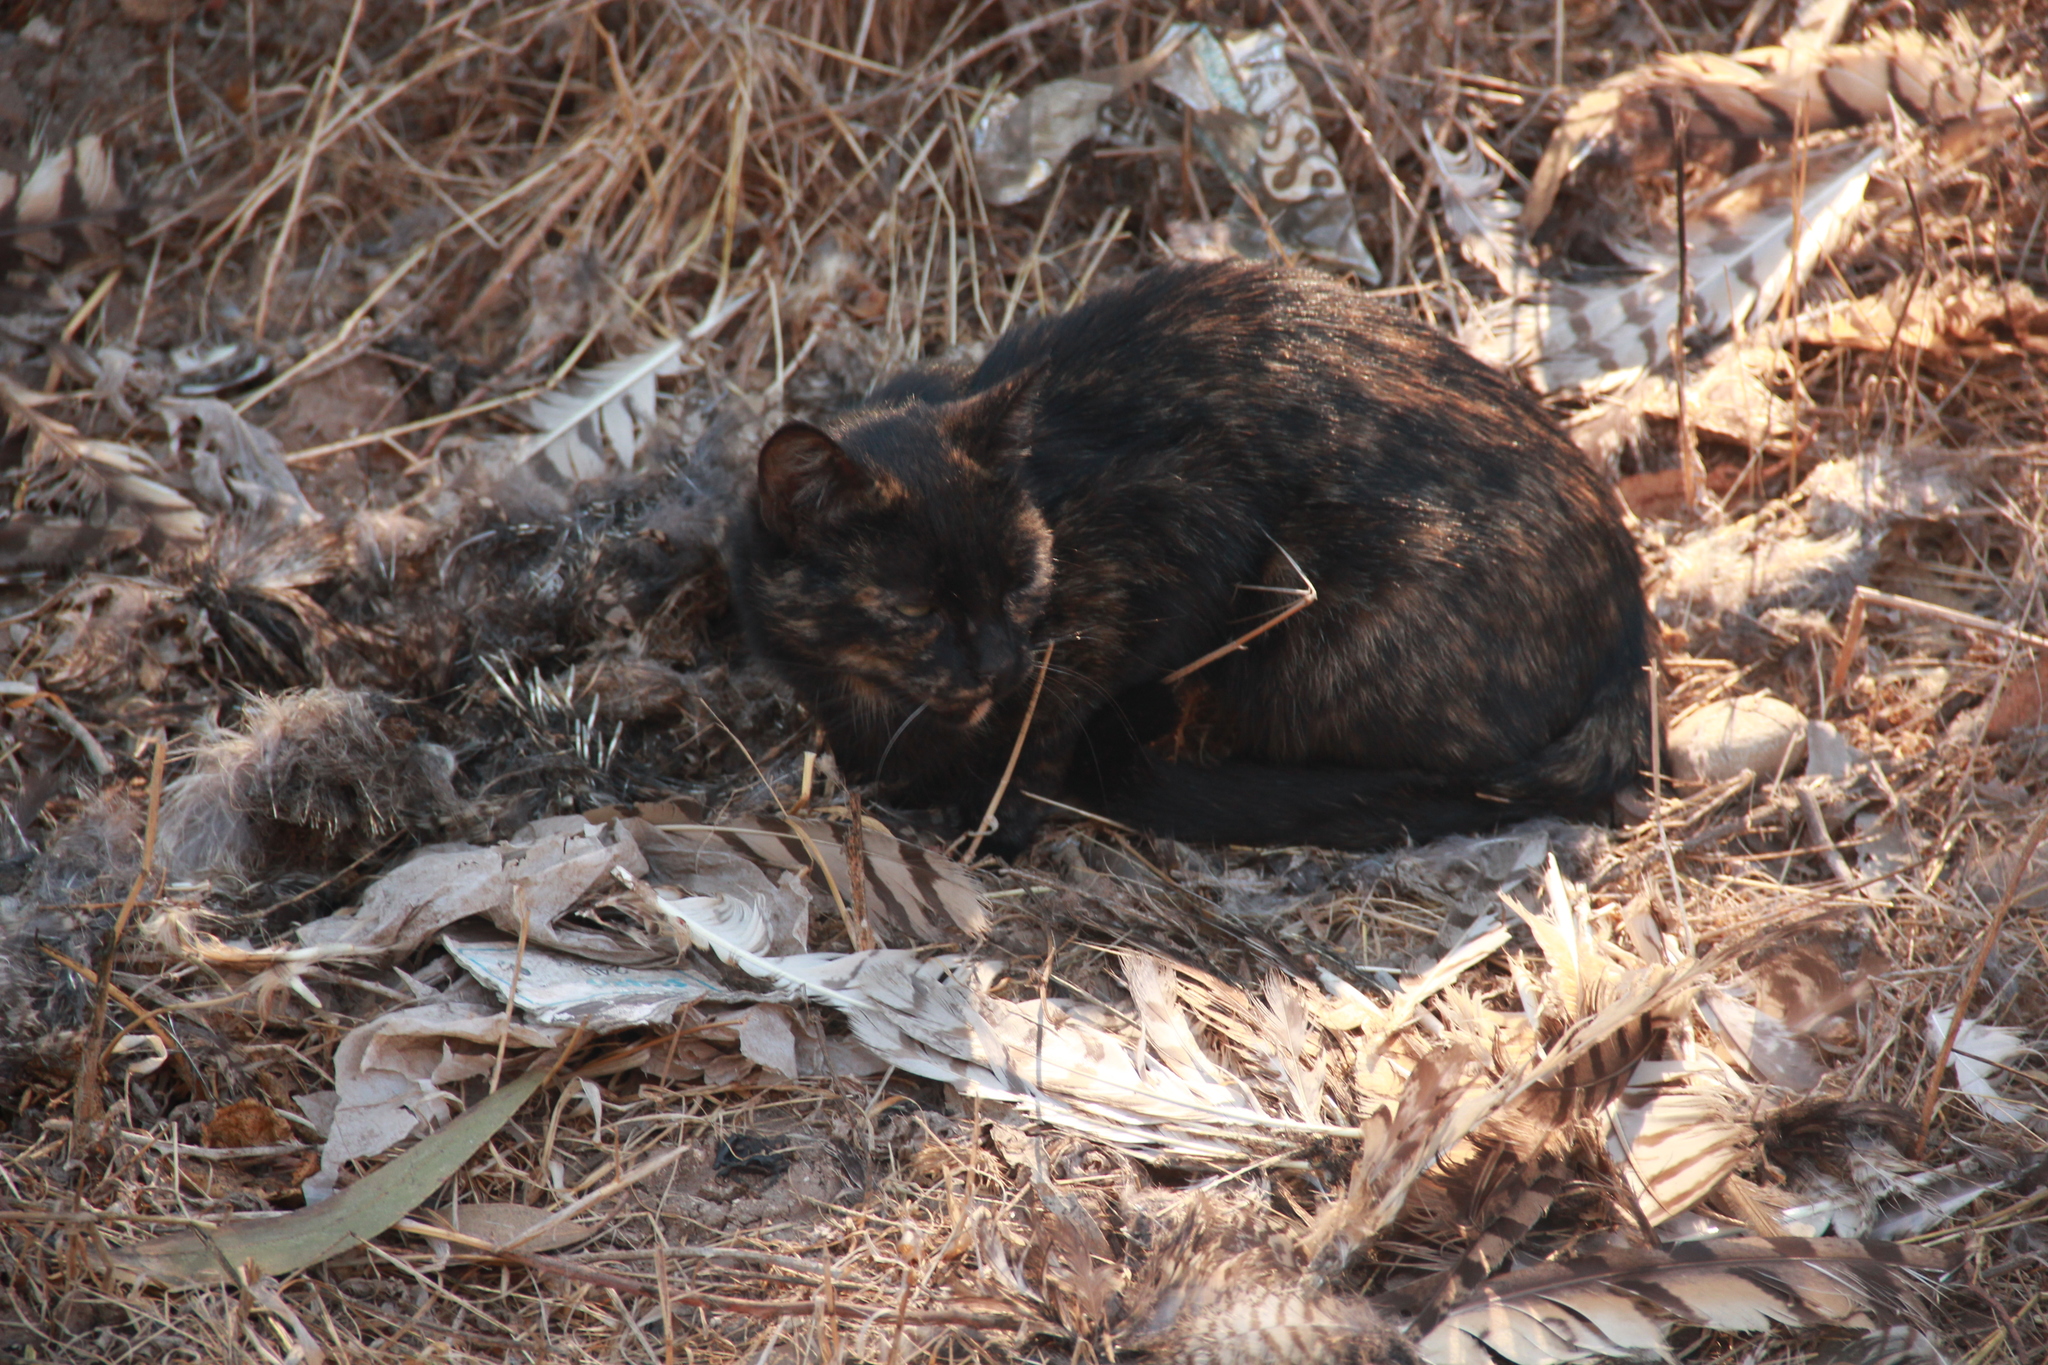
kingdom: Animalia
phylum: Chordata
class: Aves
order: Strigiformes
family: Strigidae
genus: Bubo
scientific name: Bubo magellanicus
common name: Lesser horned owl
